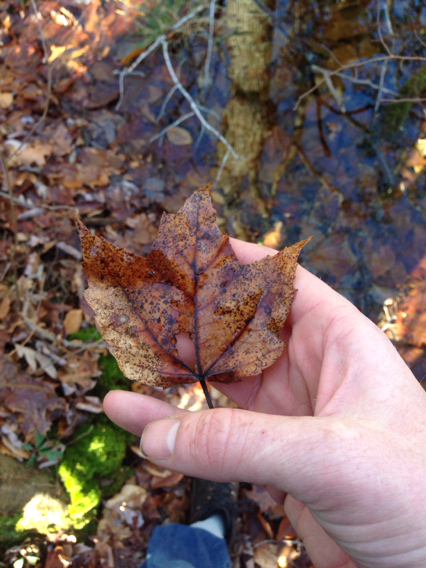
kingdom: Plantae
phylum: Tracheophyta
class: Magnoliopsida
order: Sapindales
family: Sapindaceae
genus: Acer
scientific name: Acer rubrum
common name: Red maple
